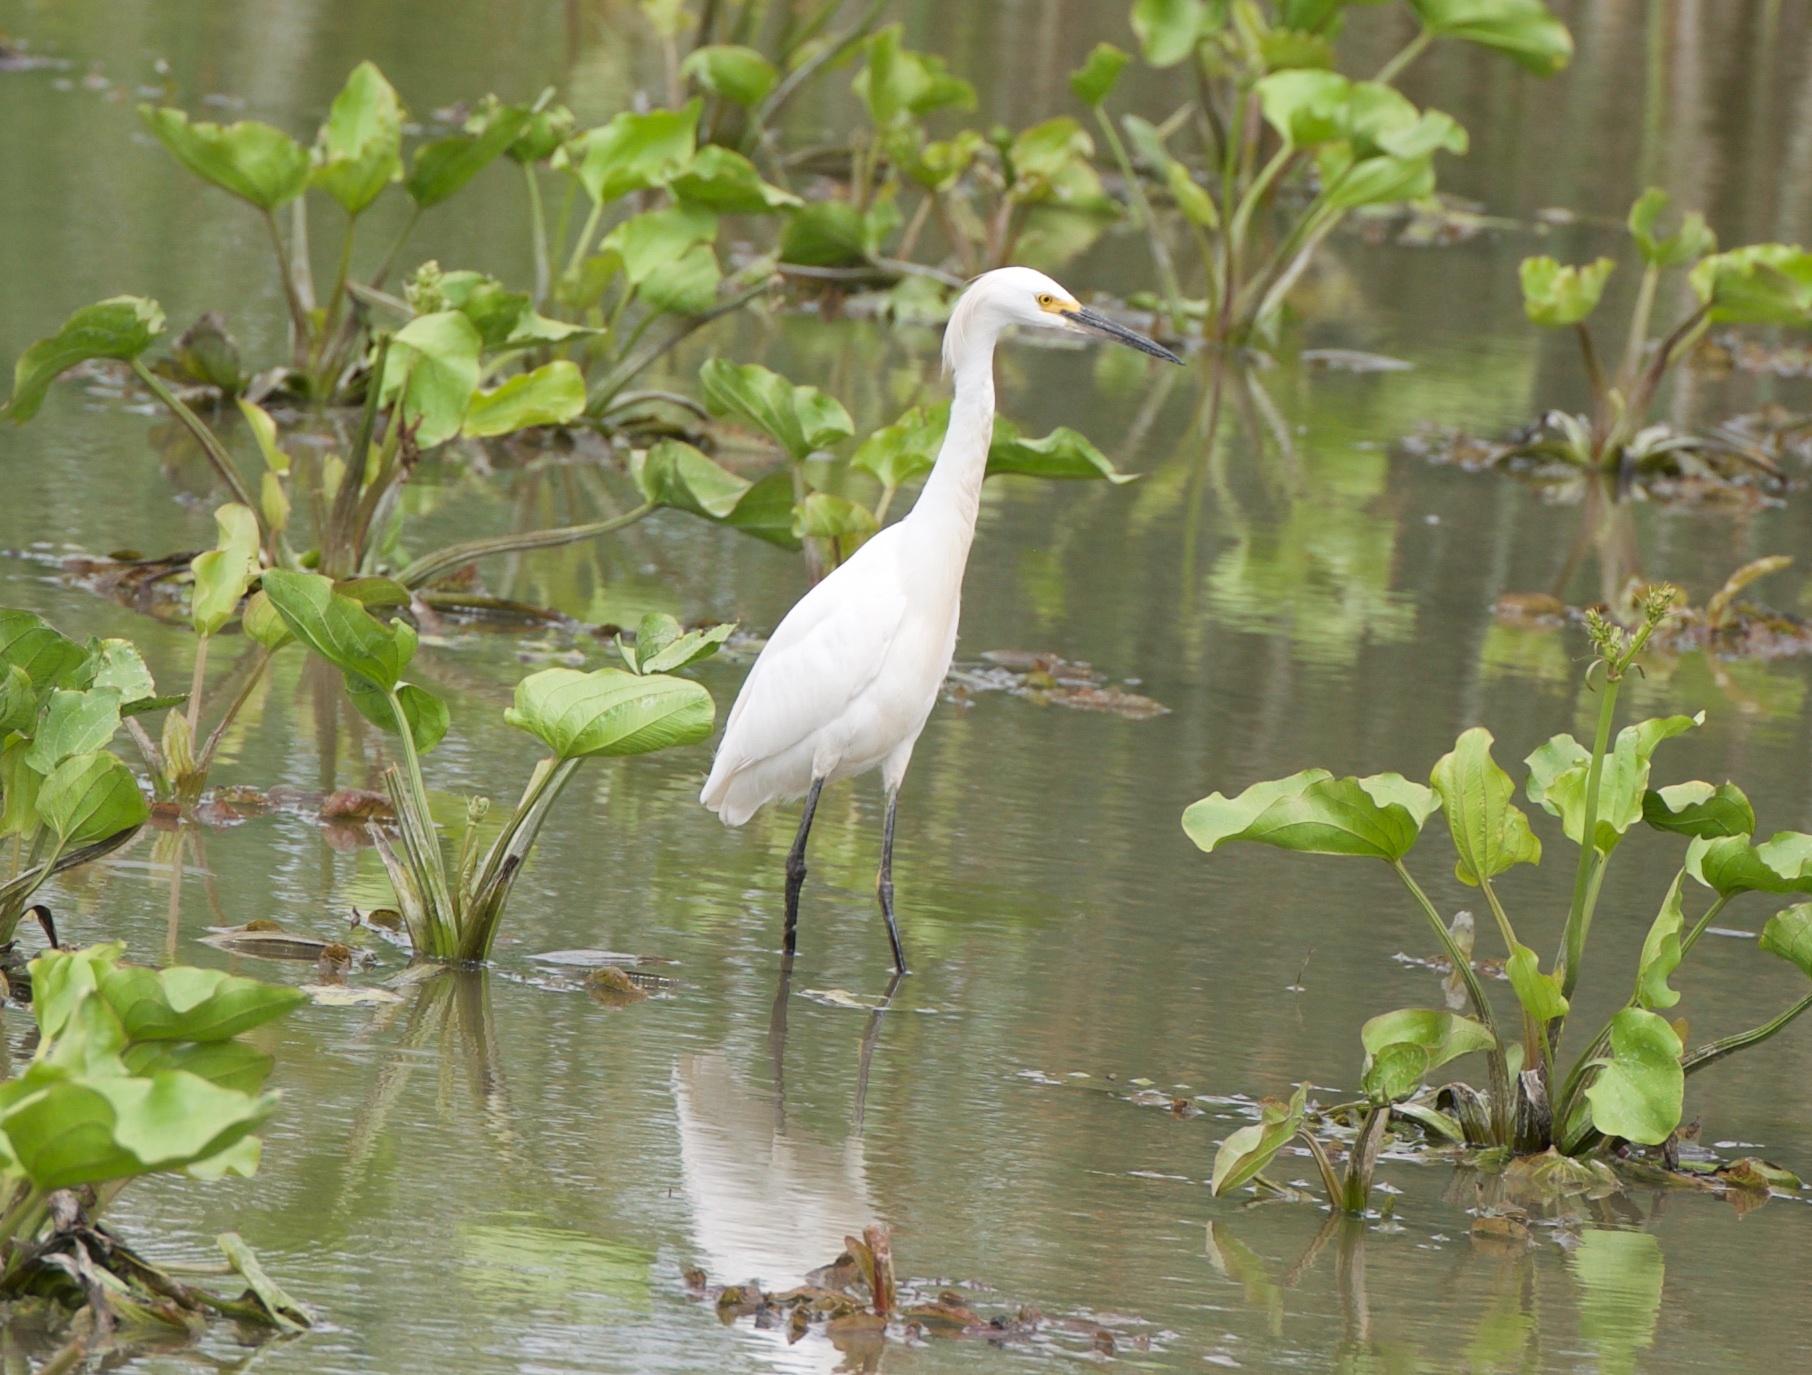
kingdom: Animalia
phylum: Chordata
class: Aves
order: Pelecaniformes
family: Ardeidae
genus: Egretta
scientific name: Egretta thula
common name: Snowy egret
